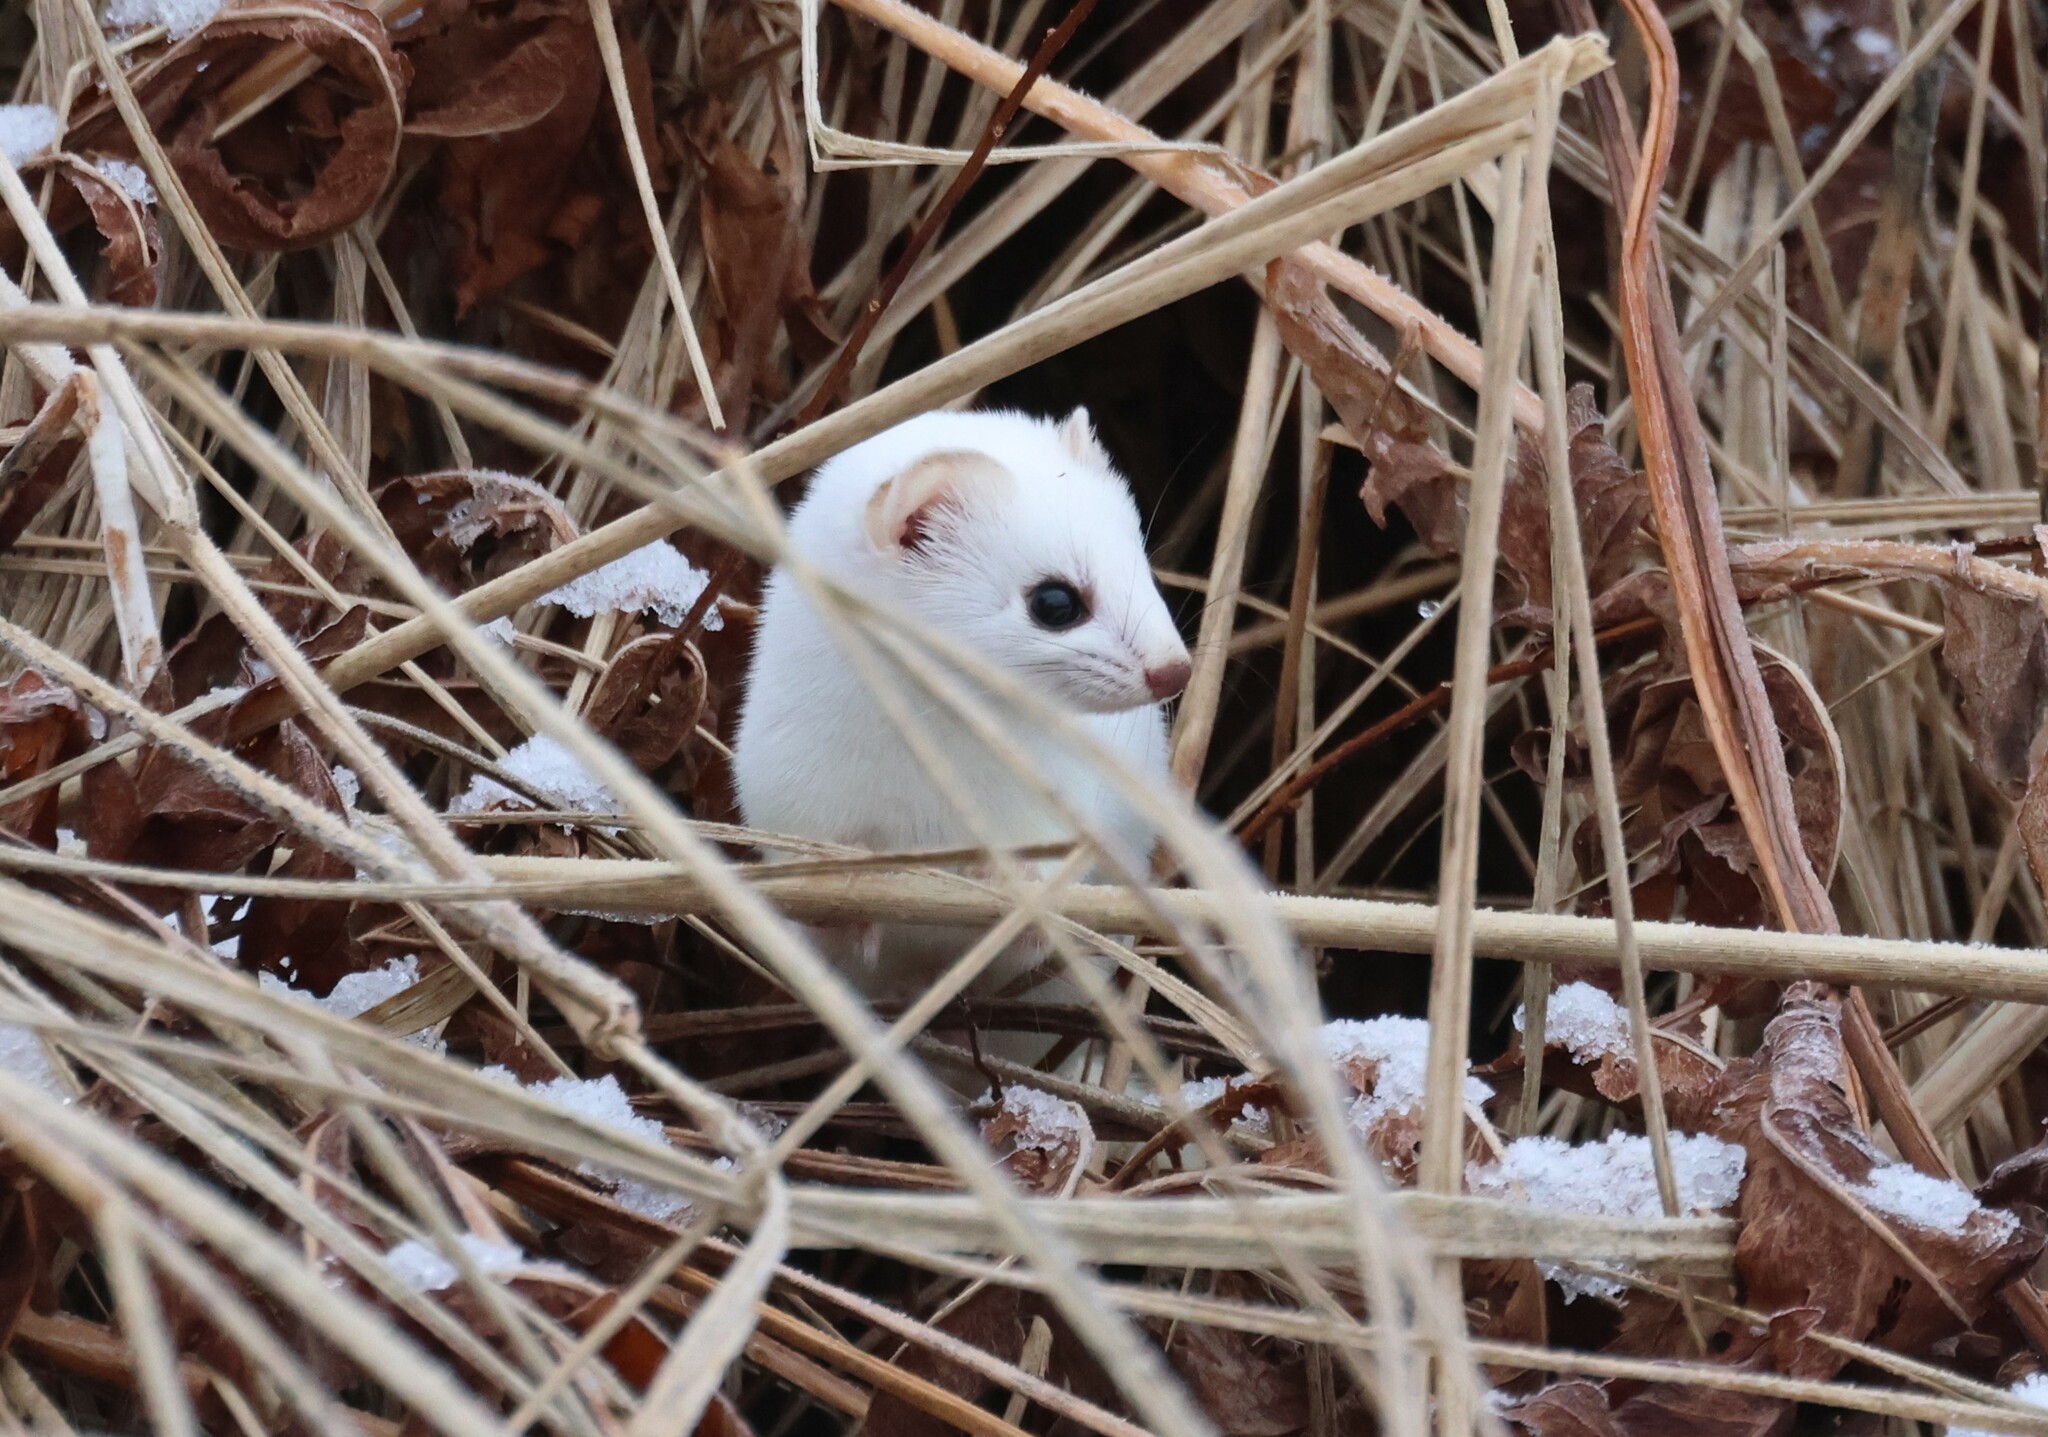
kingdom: Animalia
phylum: Chordata
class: Mammalia
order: Carnivora
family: Mustelidae
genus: Mustela
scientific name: Mustela erminea
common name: Stoat
